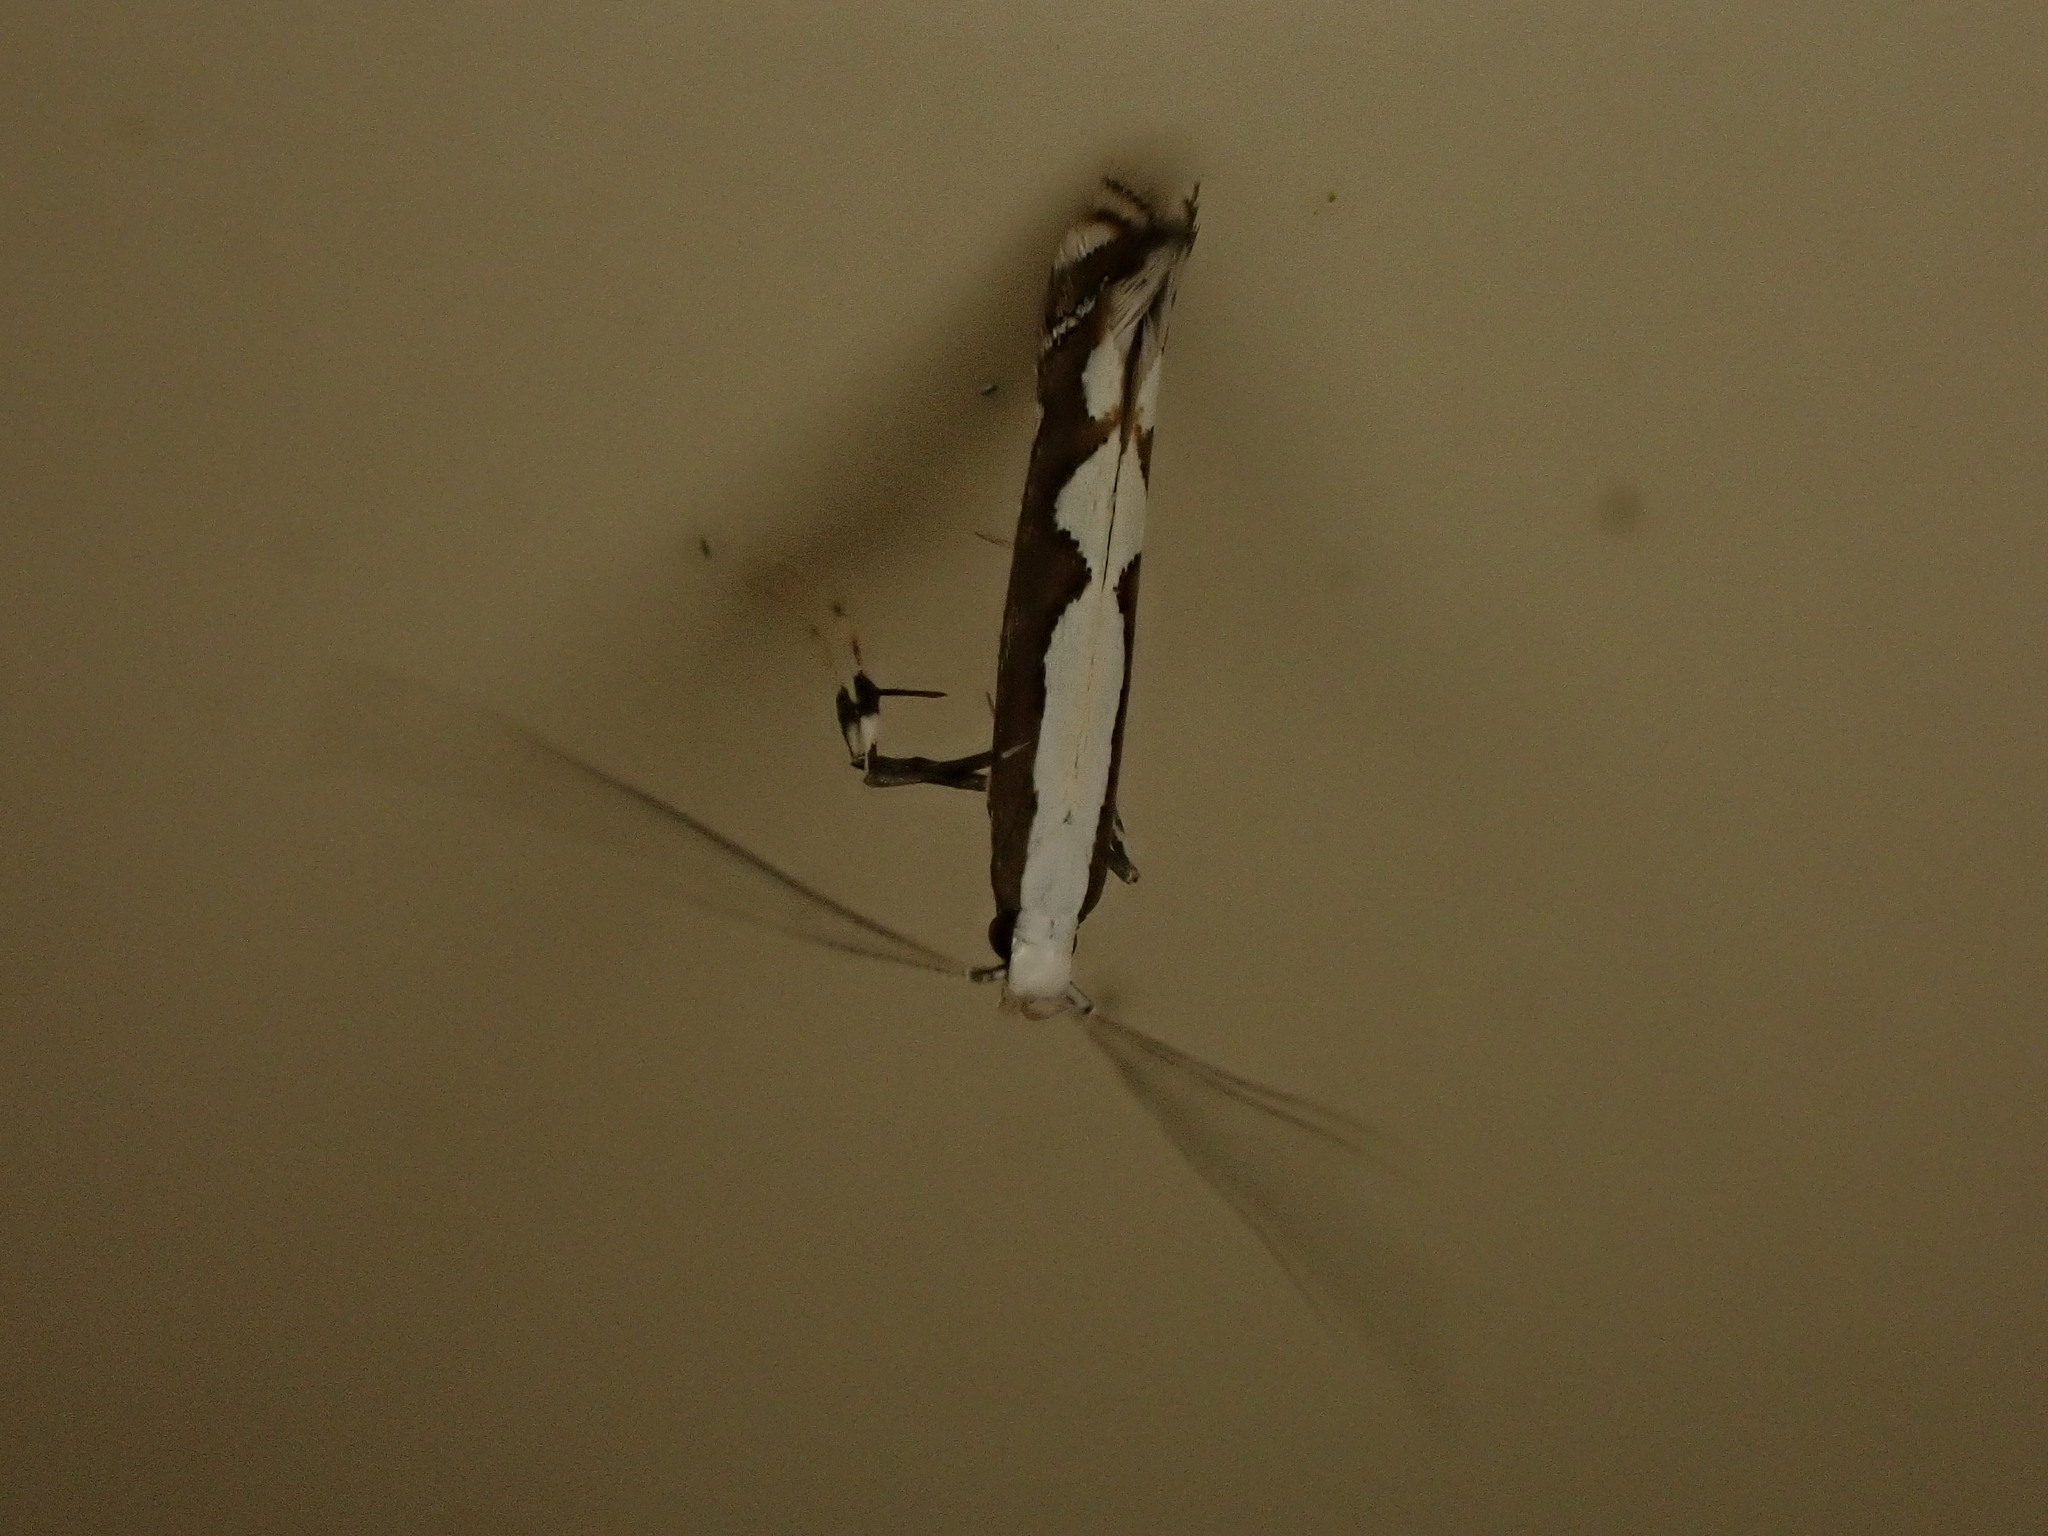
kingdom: Animalia
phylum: Arthropoda
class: Insecta
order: Lepidoptera
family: Gracillariidae
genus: Dialectica
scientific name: Dialectica scalariella
